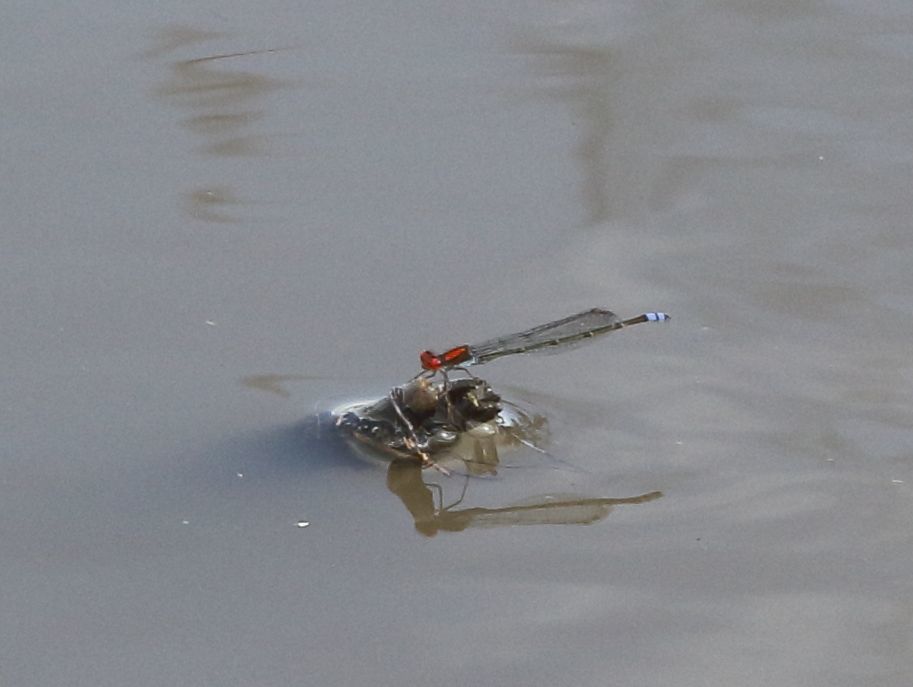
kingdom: Animalia
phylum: Arthropoda
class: Insecta
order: Odonata
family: Coenagrionidae
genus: Pseudagrion
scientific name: Pseudagrion massaicum
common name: Masai sprite
